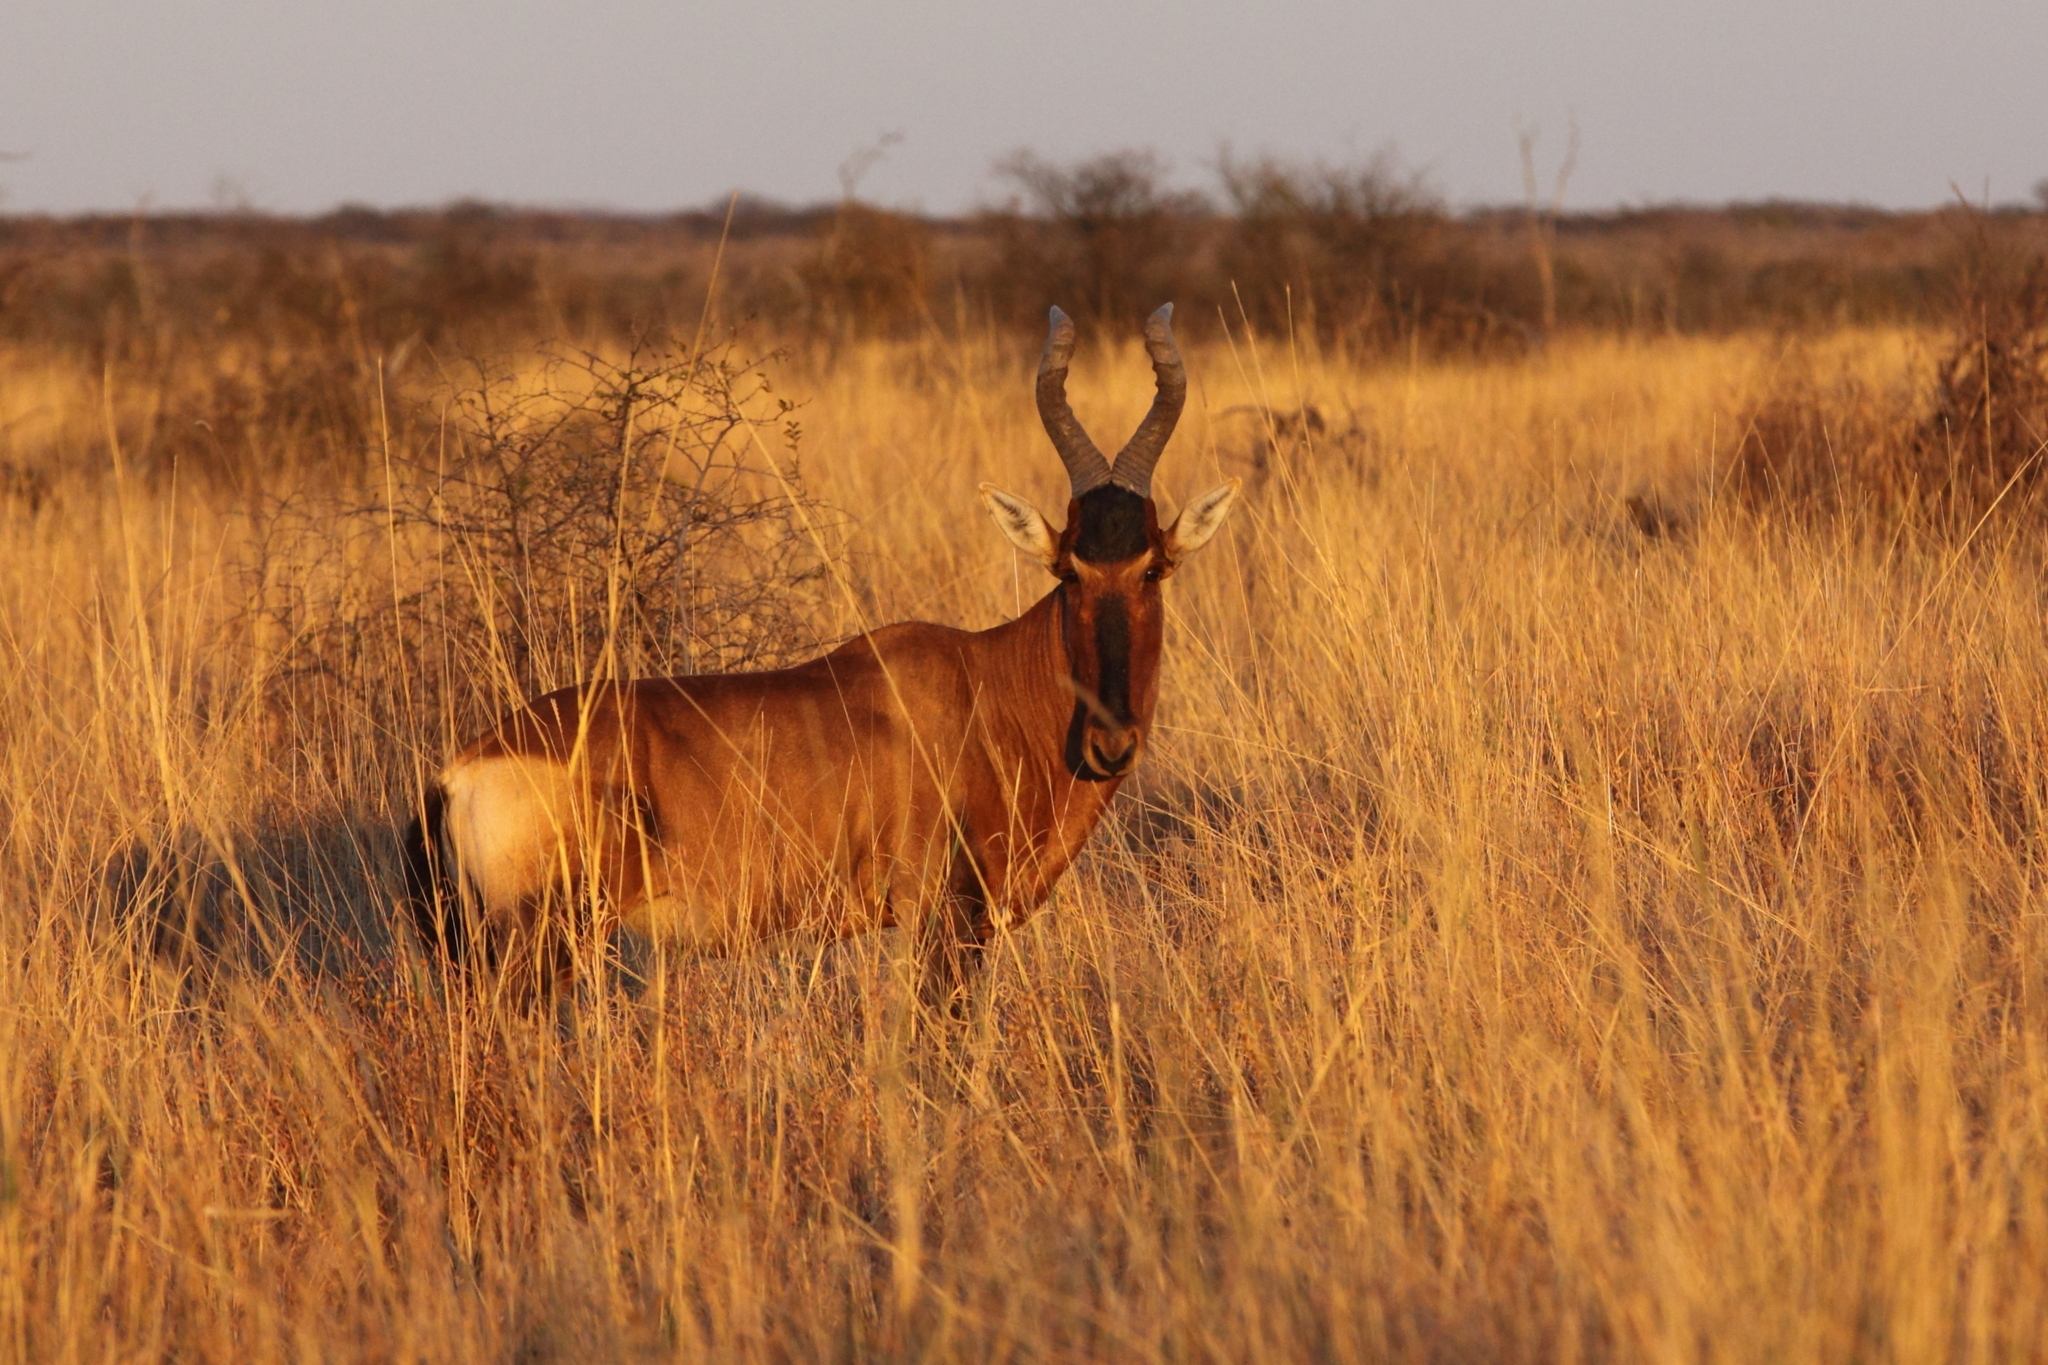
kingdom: Animalia
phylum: Chordata
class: Mammalia
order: Artiodactyla
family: Bovidae
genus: Alcelaphus
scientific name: Alcelaphus caama
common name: Red hartebeest
